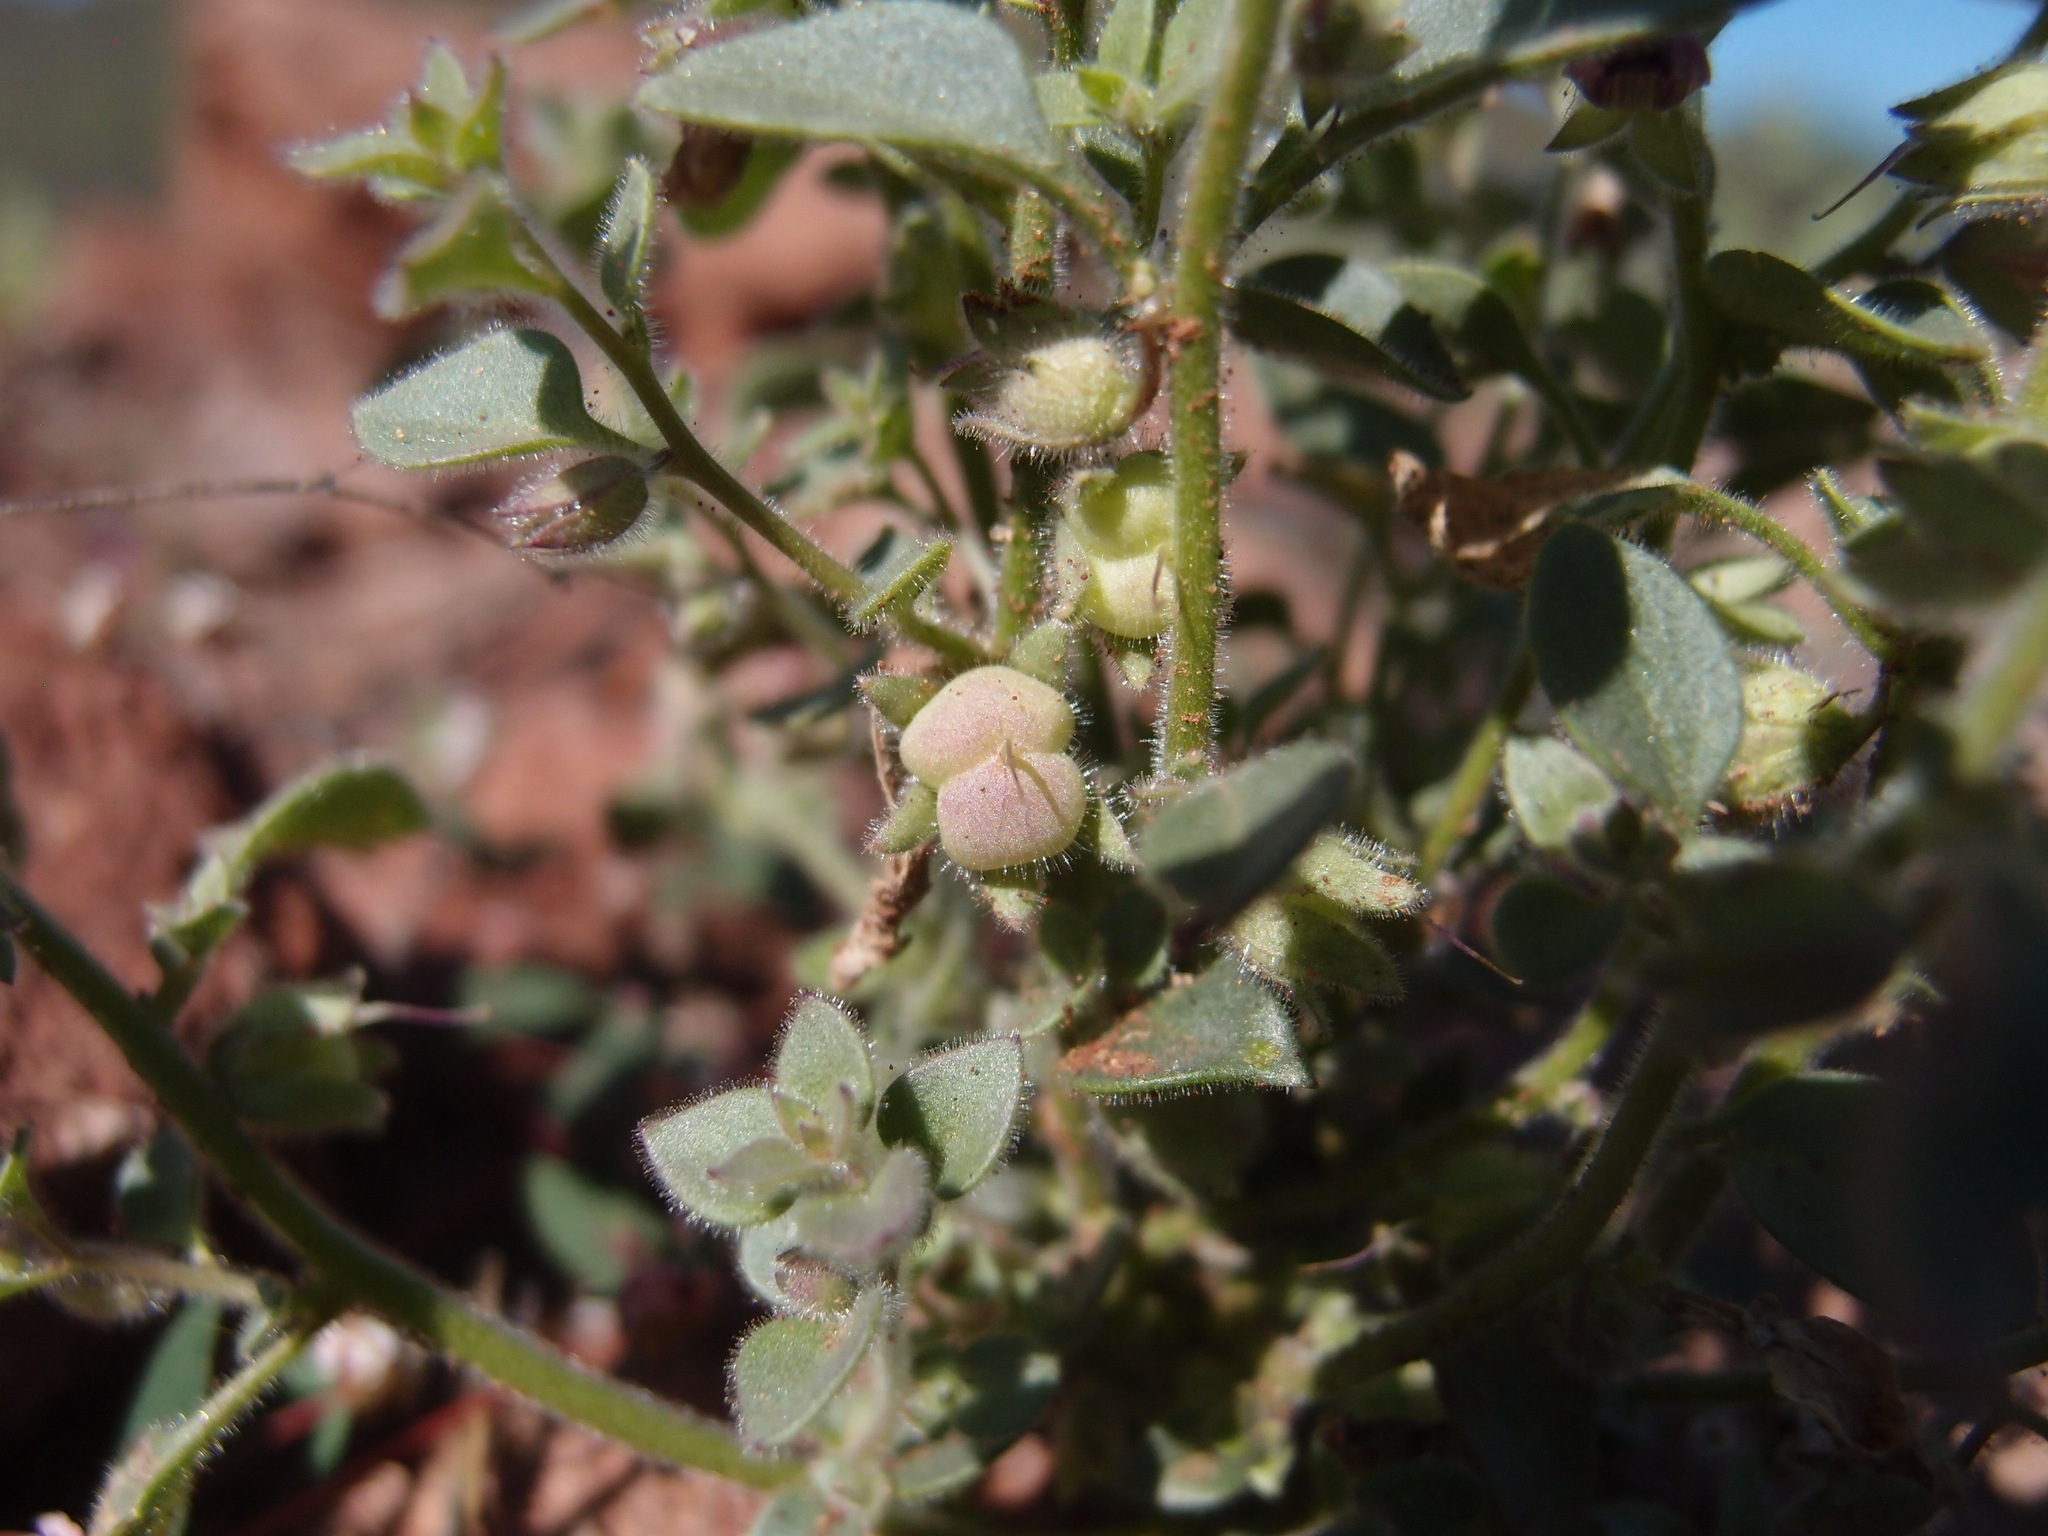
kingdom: Plantae
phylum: Tracheophyta
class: Magnoliopsida
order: Lamiales
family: Plantaginaceae
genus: Pseudorontium
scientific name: Pseudorontium cyathiferum
